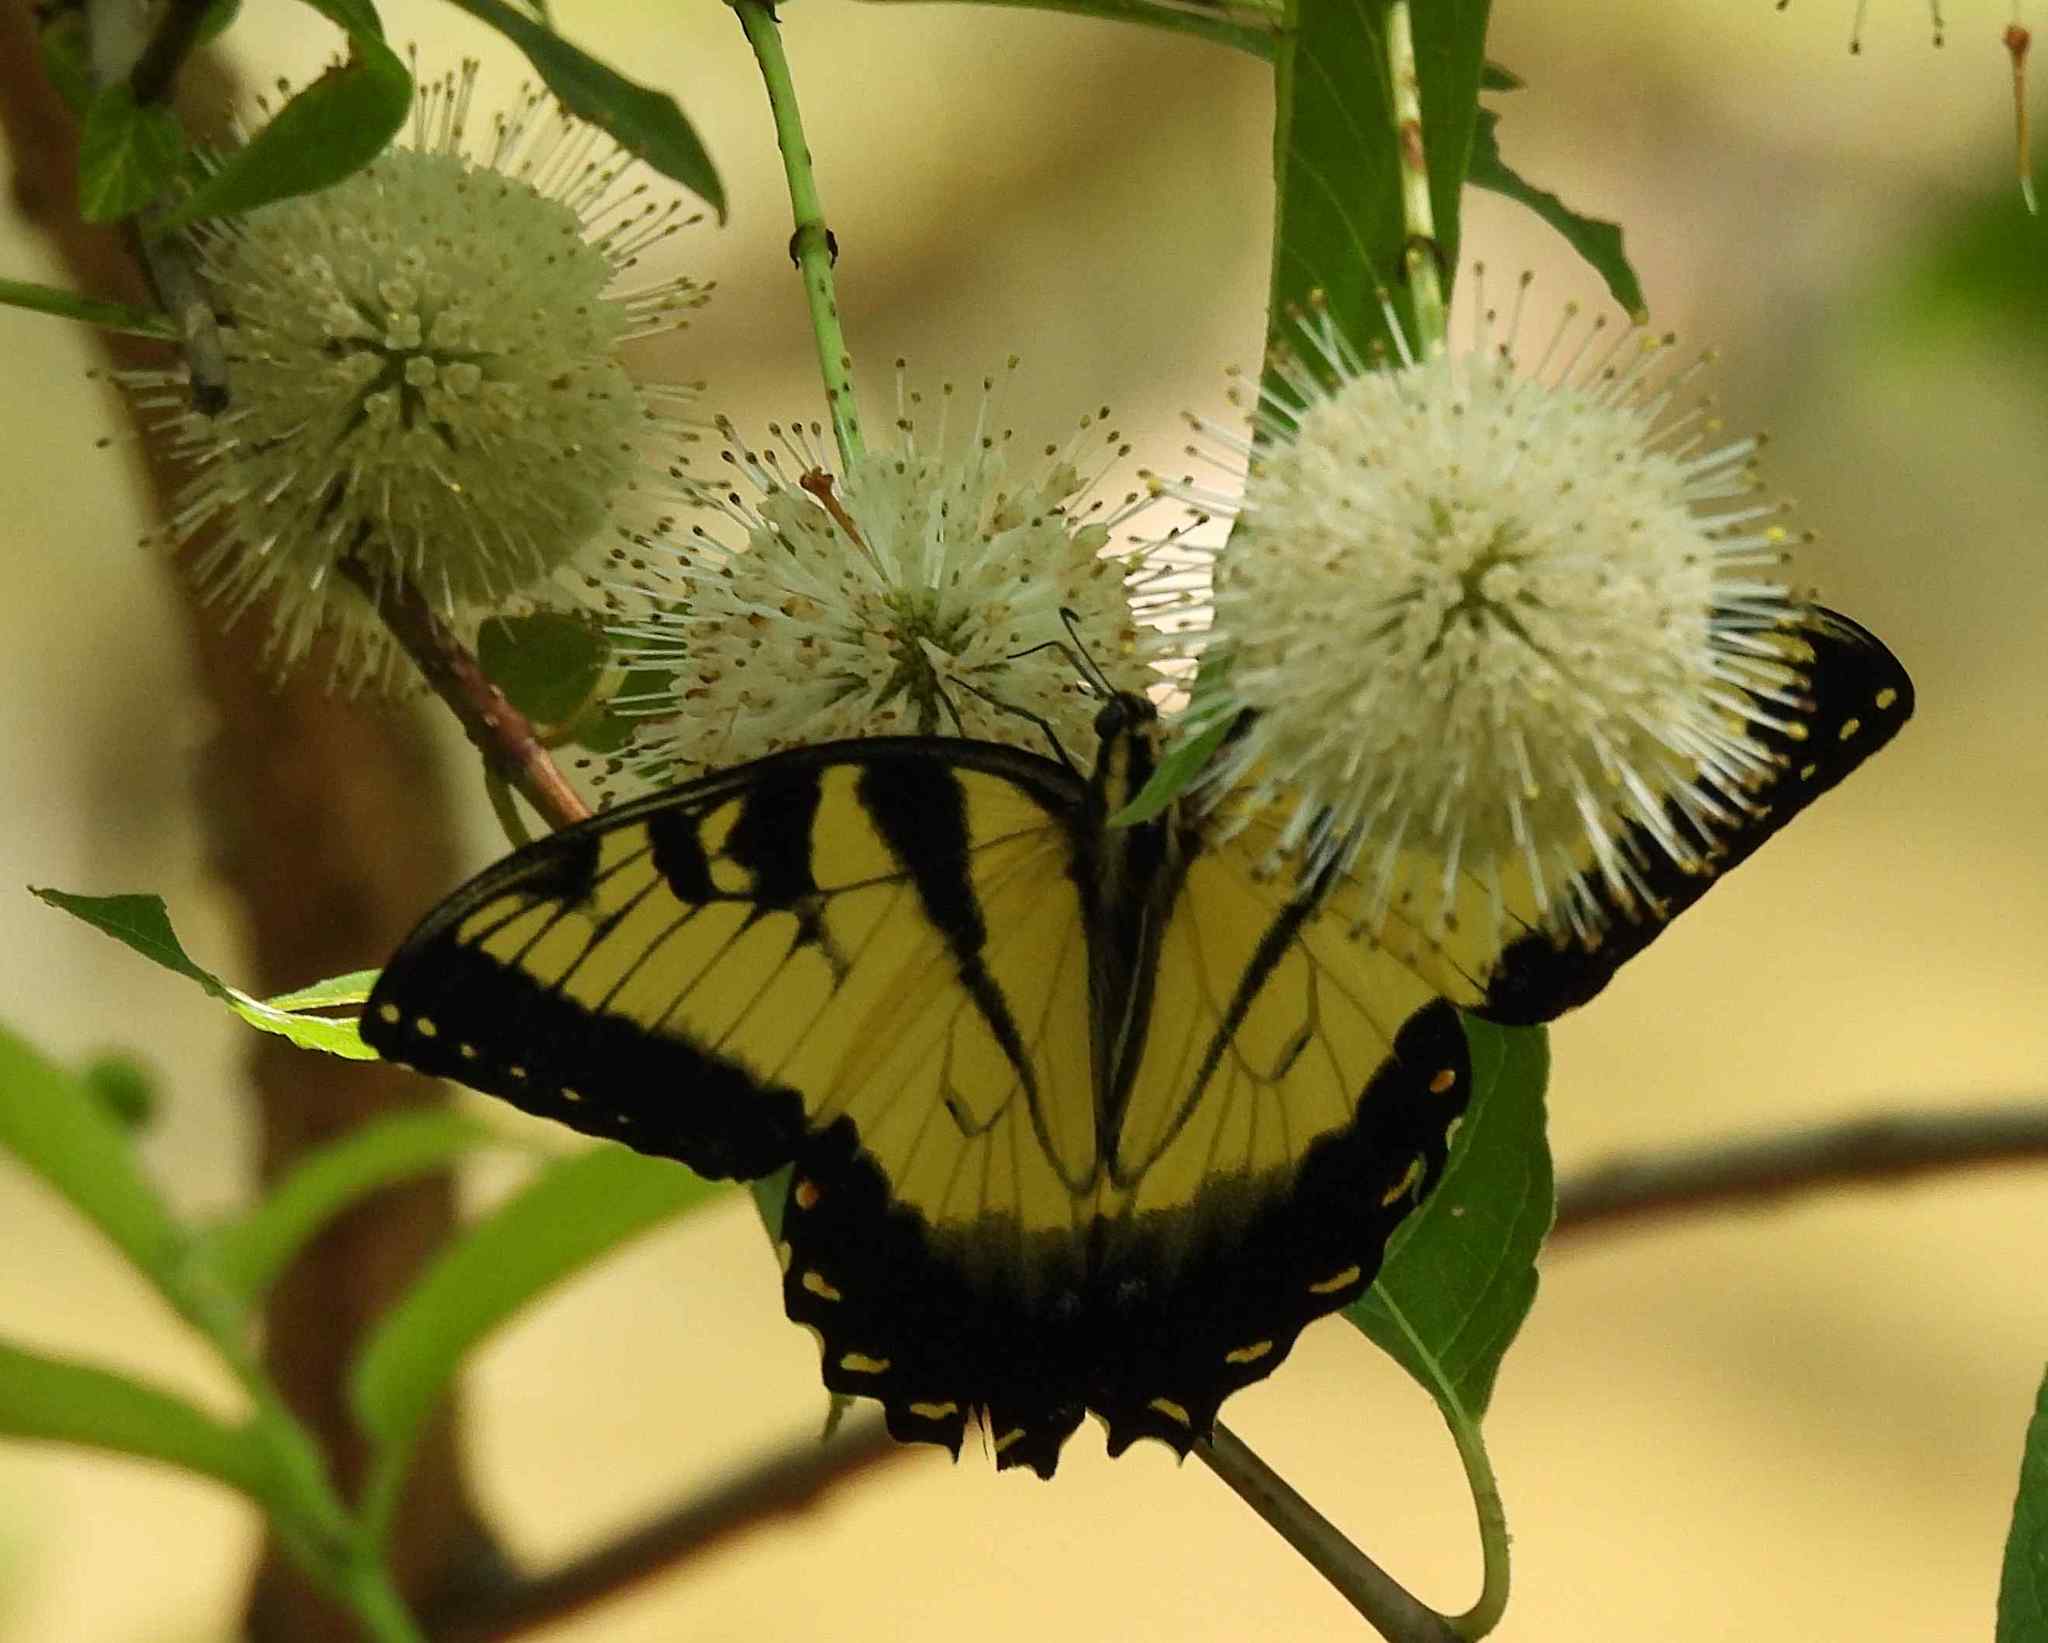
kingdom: Animalia
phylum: Arthropoda
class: Insecta
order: Lepidoptera
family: Papilionidae
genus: Papilio
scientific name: Papilio glaucus
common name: Tiger swallowtail
